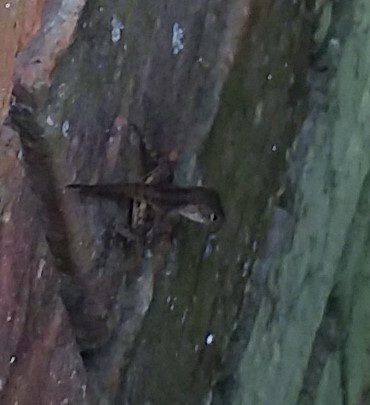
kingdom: Animalia
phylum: Chordata
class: Squamata
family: Dactyloidae
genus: Anolis
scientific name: Anolis sagrei
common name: Brown anole
